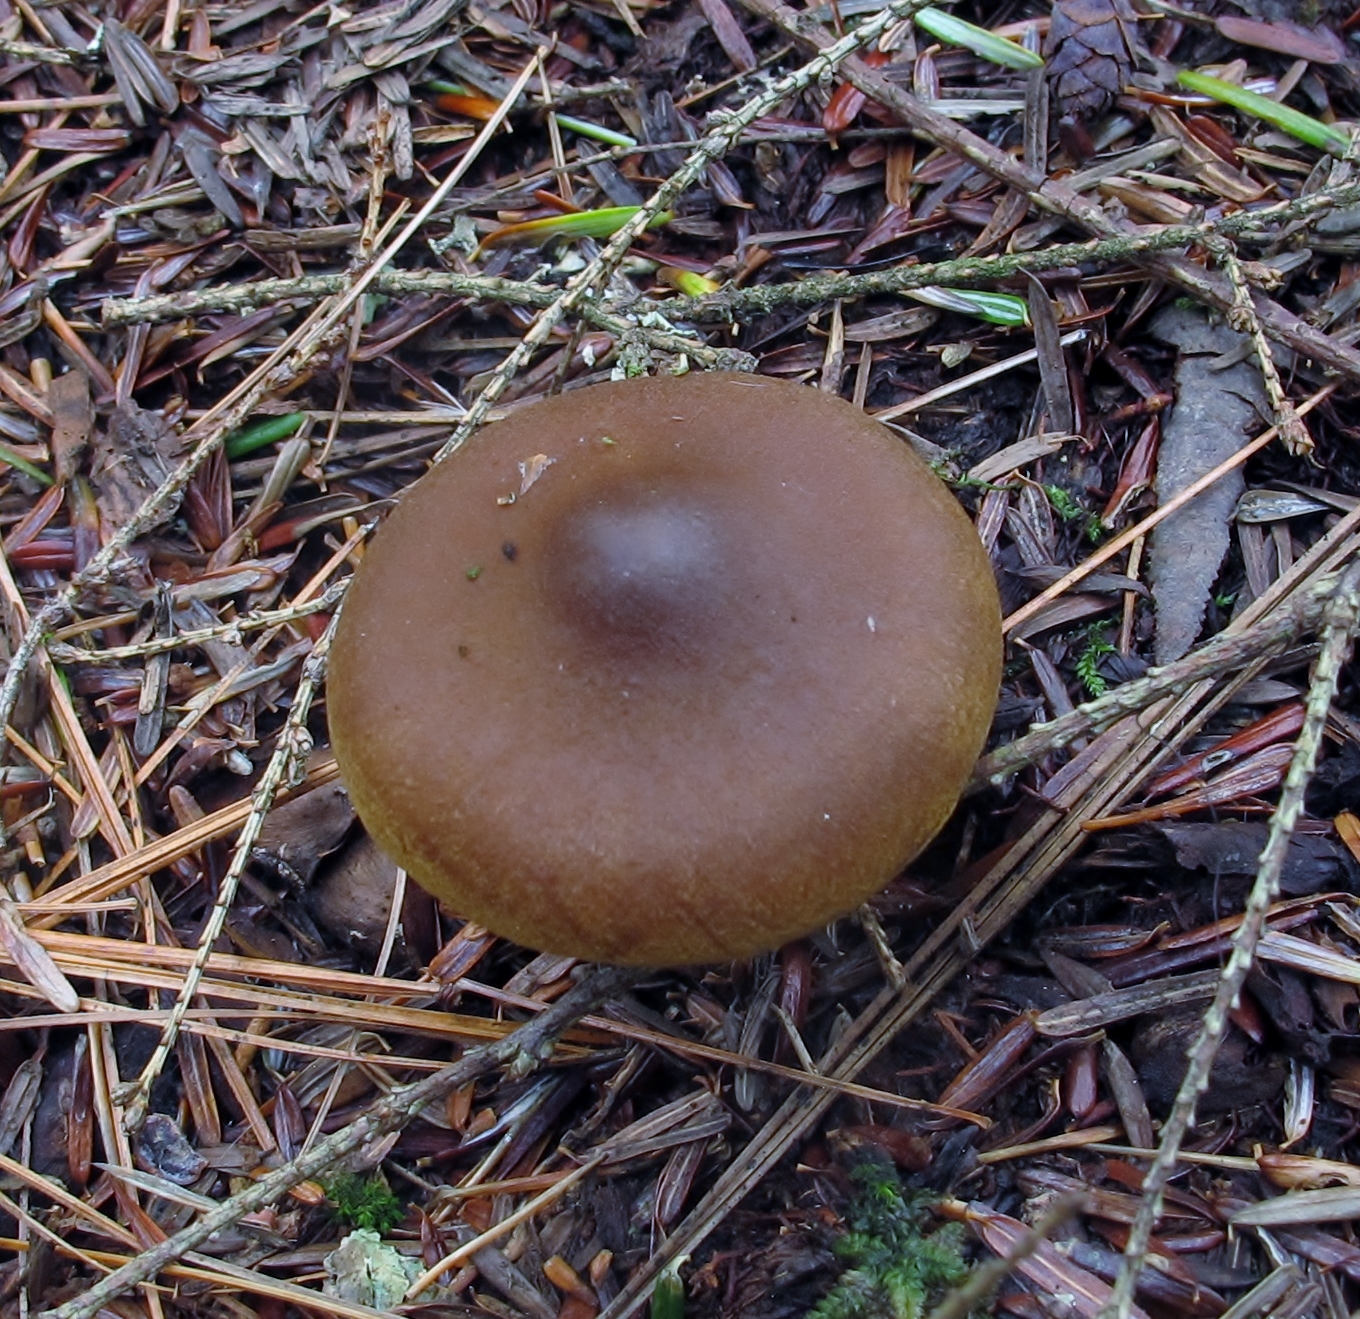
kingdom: Fungi
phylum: Basidiomycota
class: Agaricomycetes
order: Agaricales
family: Cortinariaceae
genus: Cortinarius
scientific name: Cortinarius semisanguineus
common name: Surprise webcap
